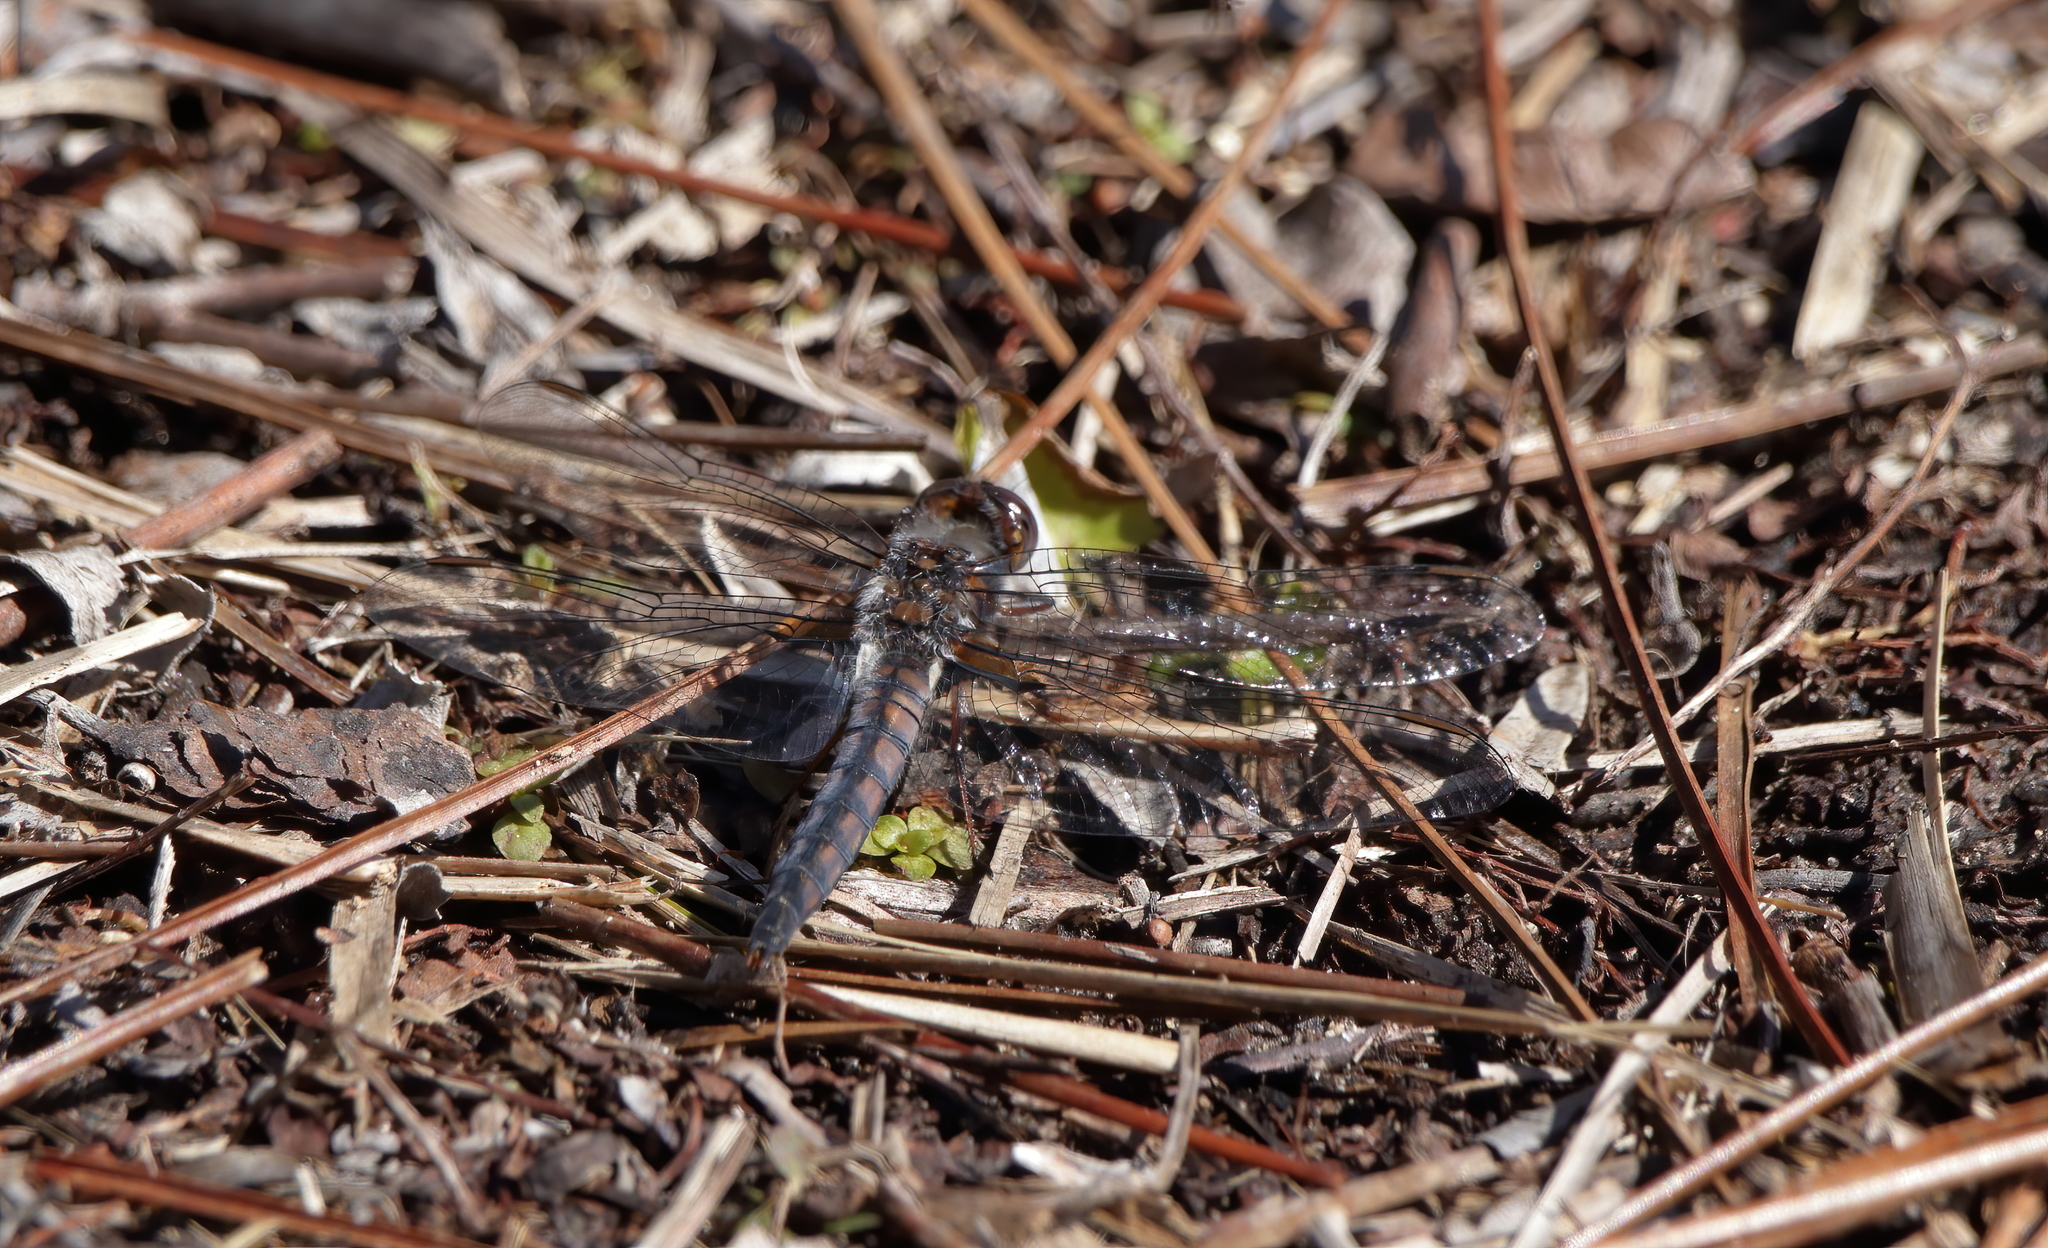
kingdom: Animalia
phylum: Arthropoda
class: Insecta
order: Odonata
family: Libellulidae
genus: Ladona
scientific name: Ladona deplanata
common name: Blue corporal
